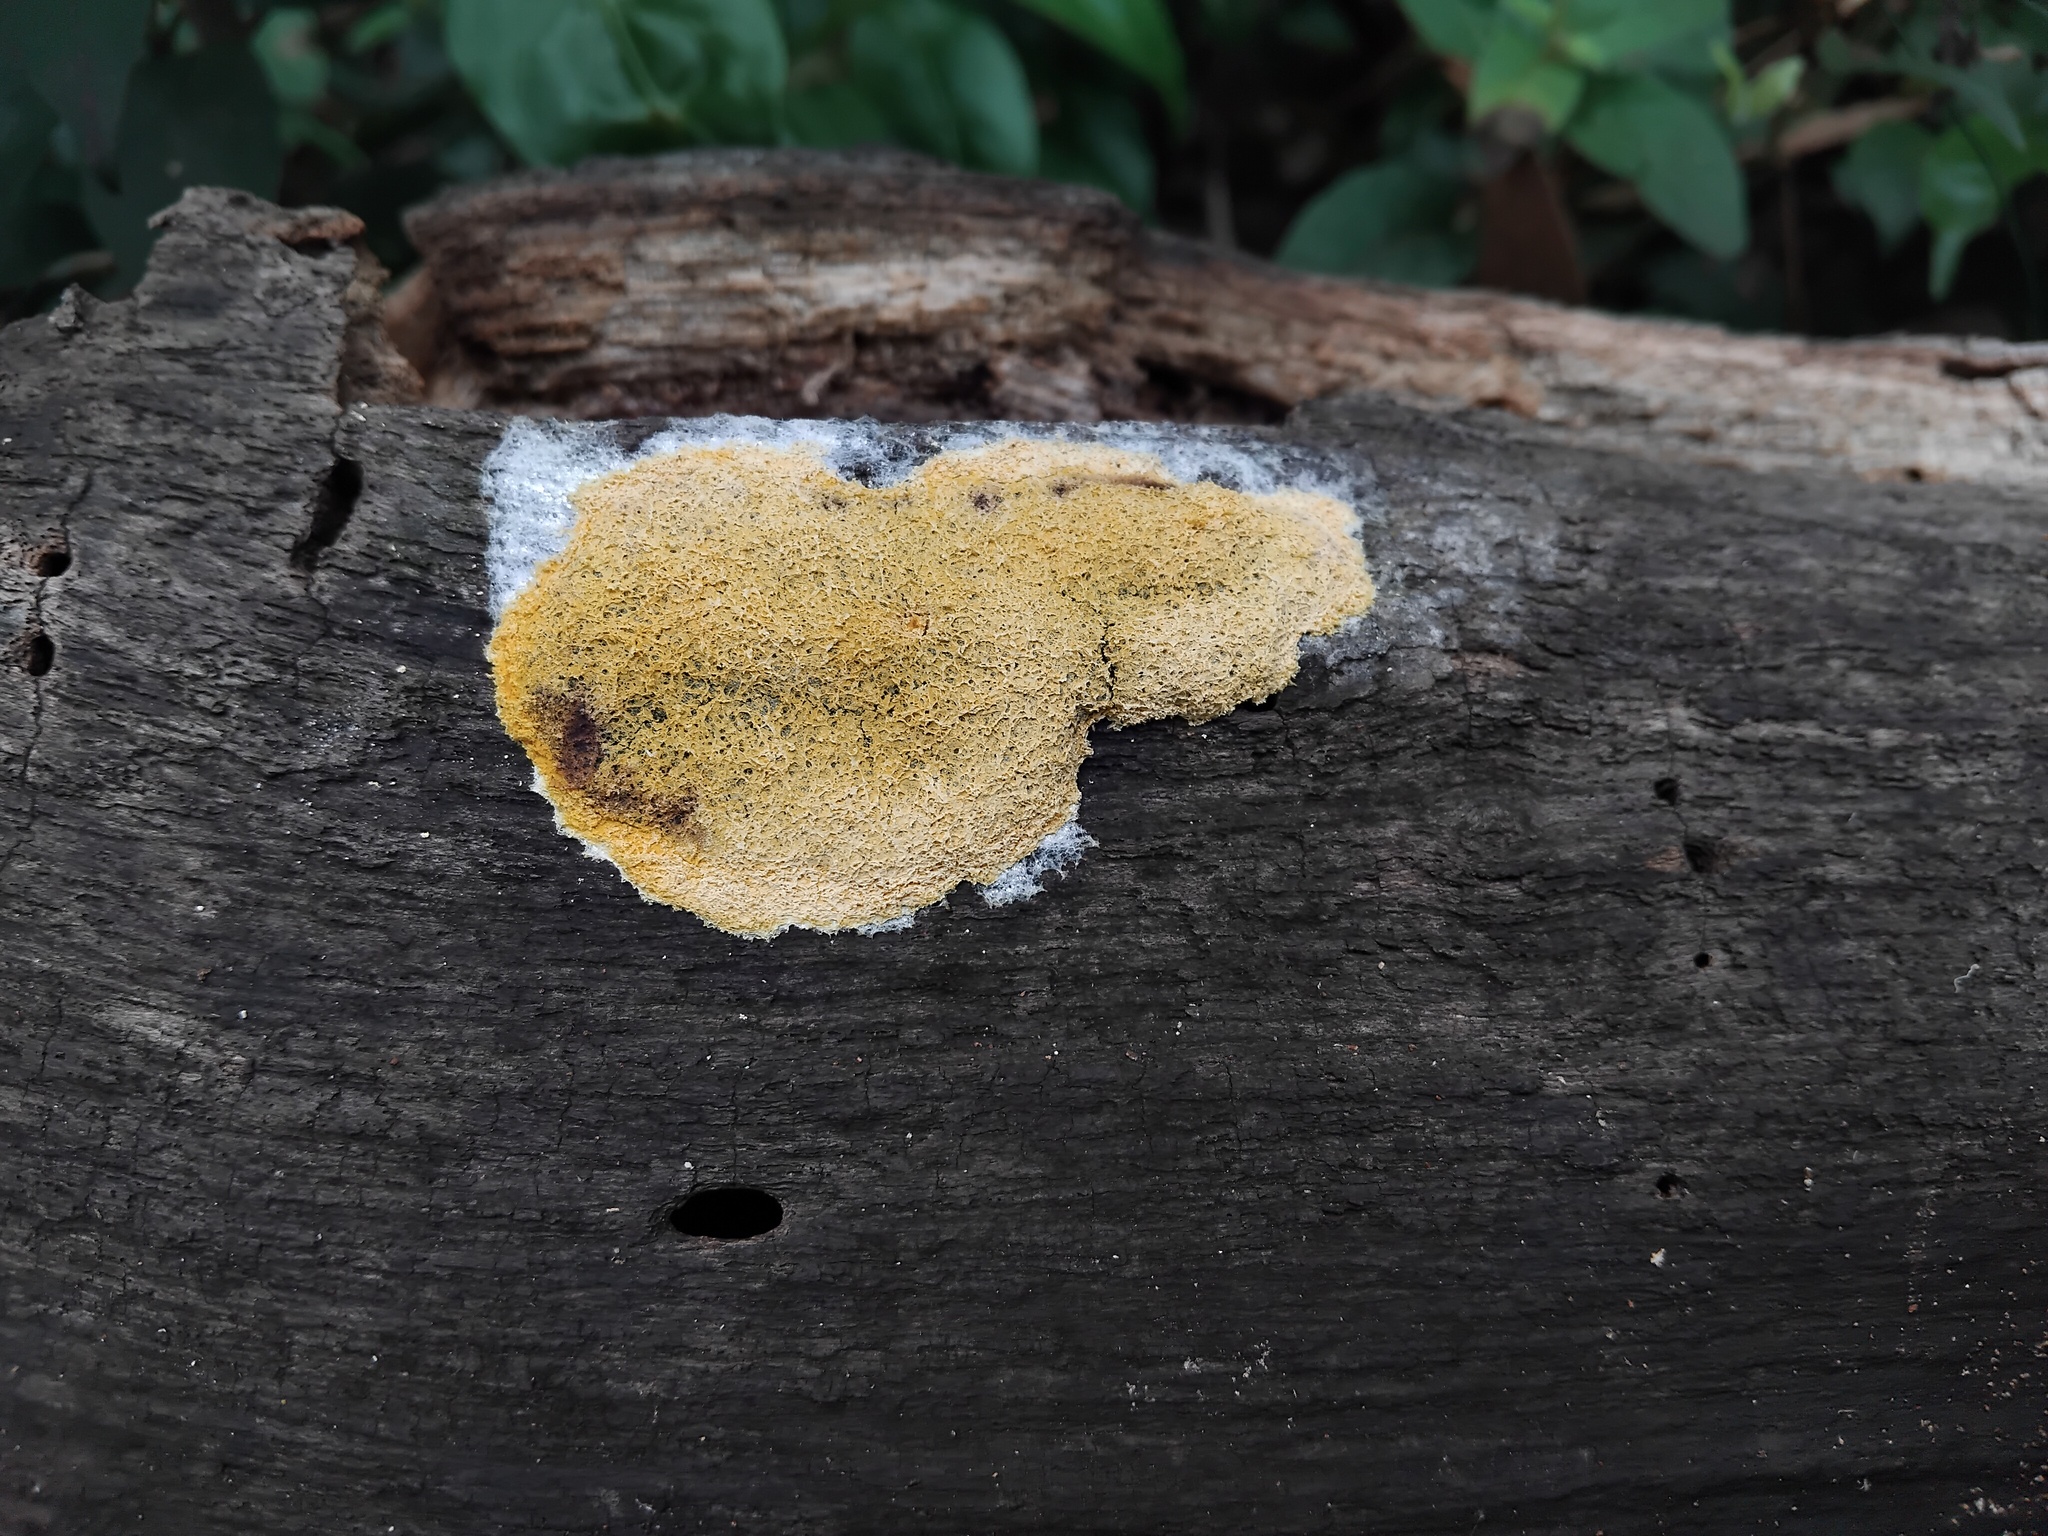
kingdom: Protozoa
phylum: Mycetozoa
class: Myxomycetes
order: Physarales
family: Physaraceae
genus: Fuligo
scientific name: Fuligo septica
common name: Dog vomit slime mold
